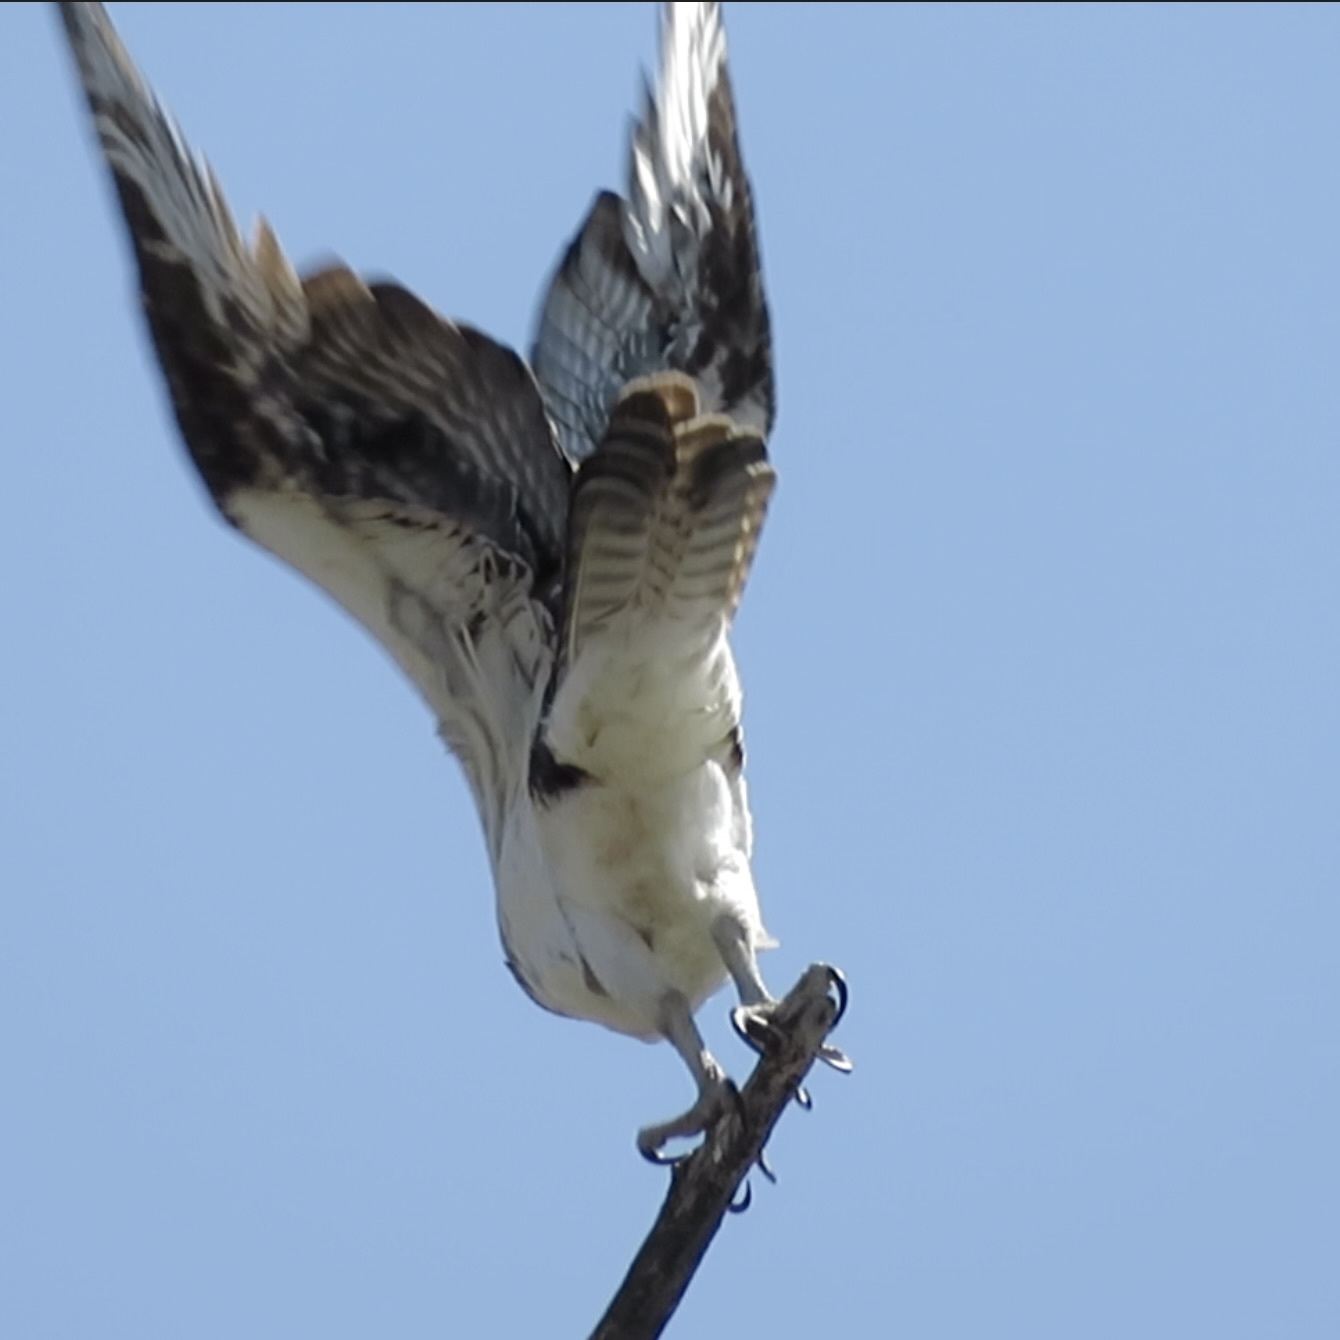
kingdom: Animalia
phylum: Chordata
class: Aves
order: Accipitriformes
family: Pandionidae
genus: Pandion
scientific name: Pandion haliaetus
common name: Osprey
